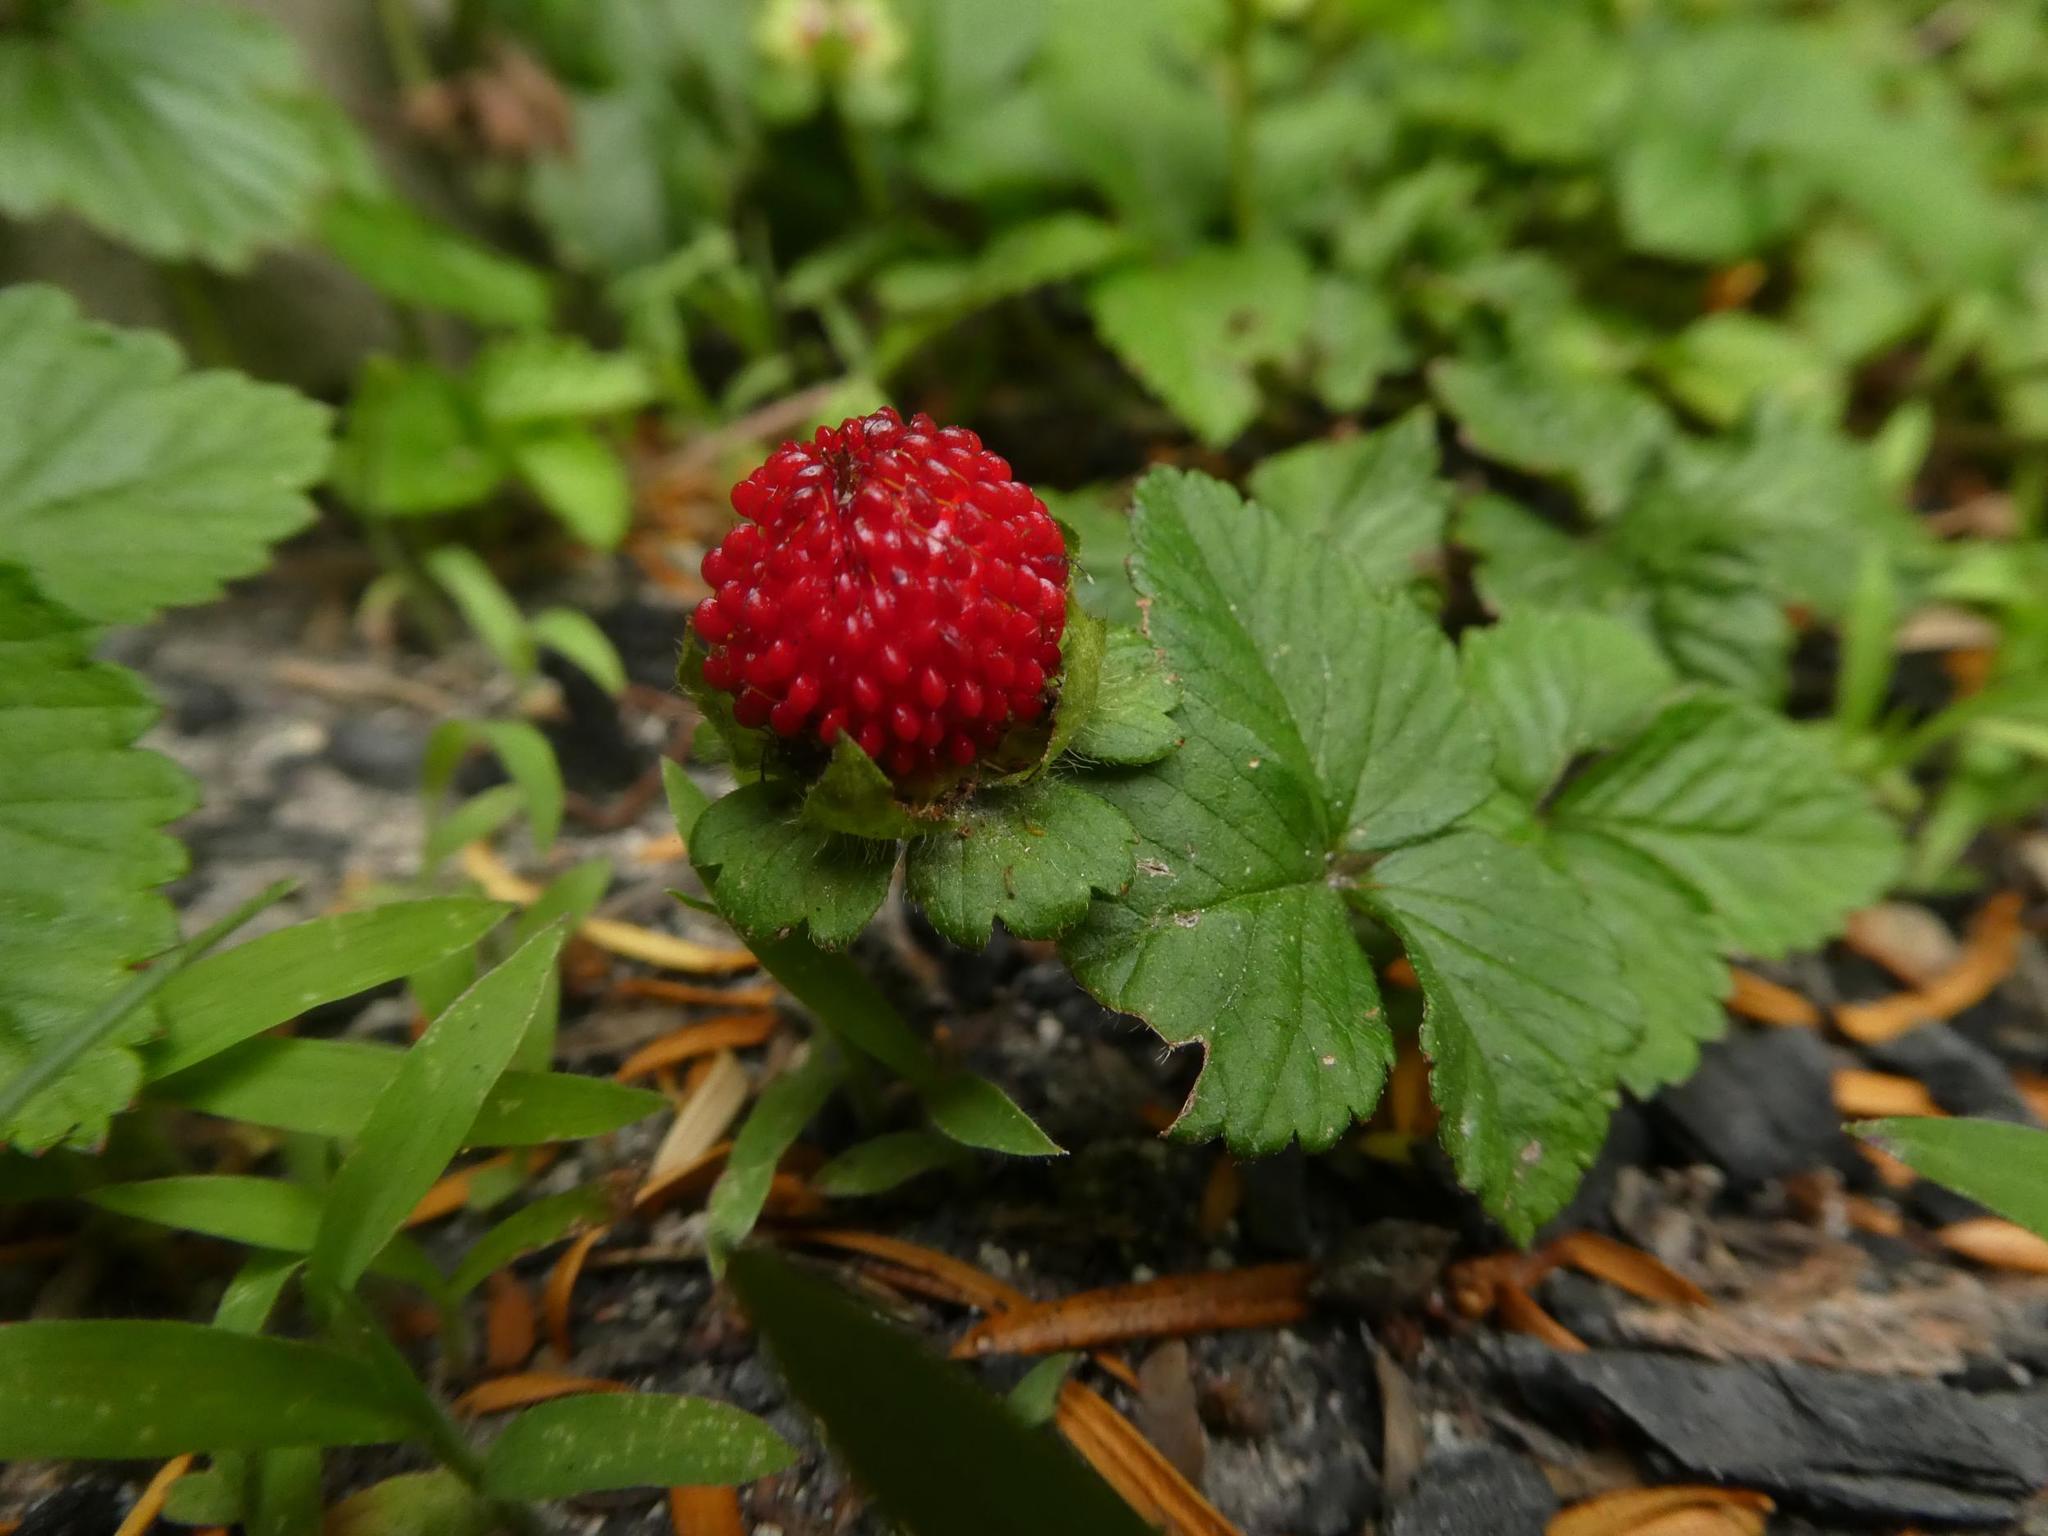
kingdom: Plantae
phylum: Tracheophyta
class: Magnoliopsida
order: Rosales
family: Rosaceae
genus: Potentilla
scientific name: Potentilla indica
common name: Yellow-flowered strawberry
